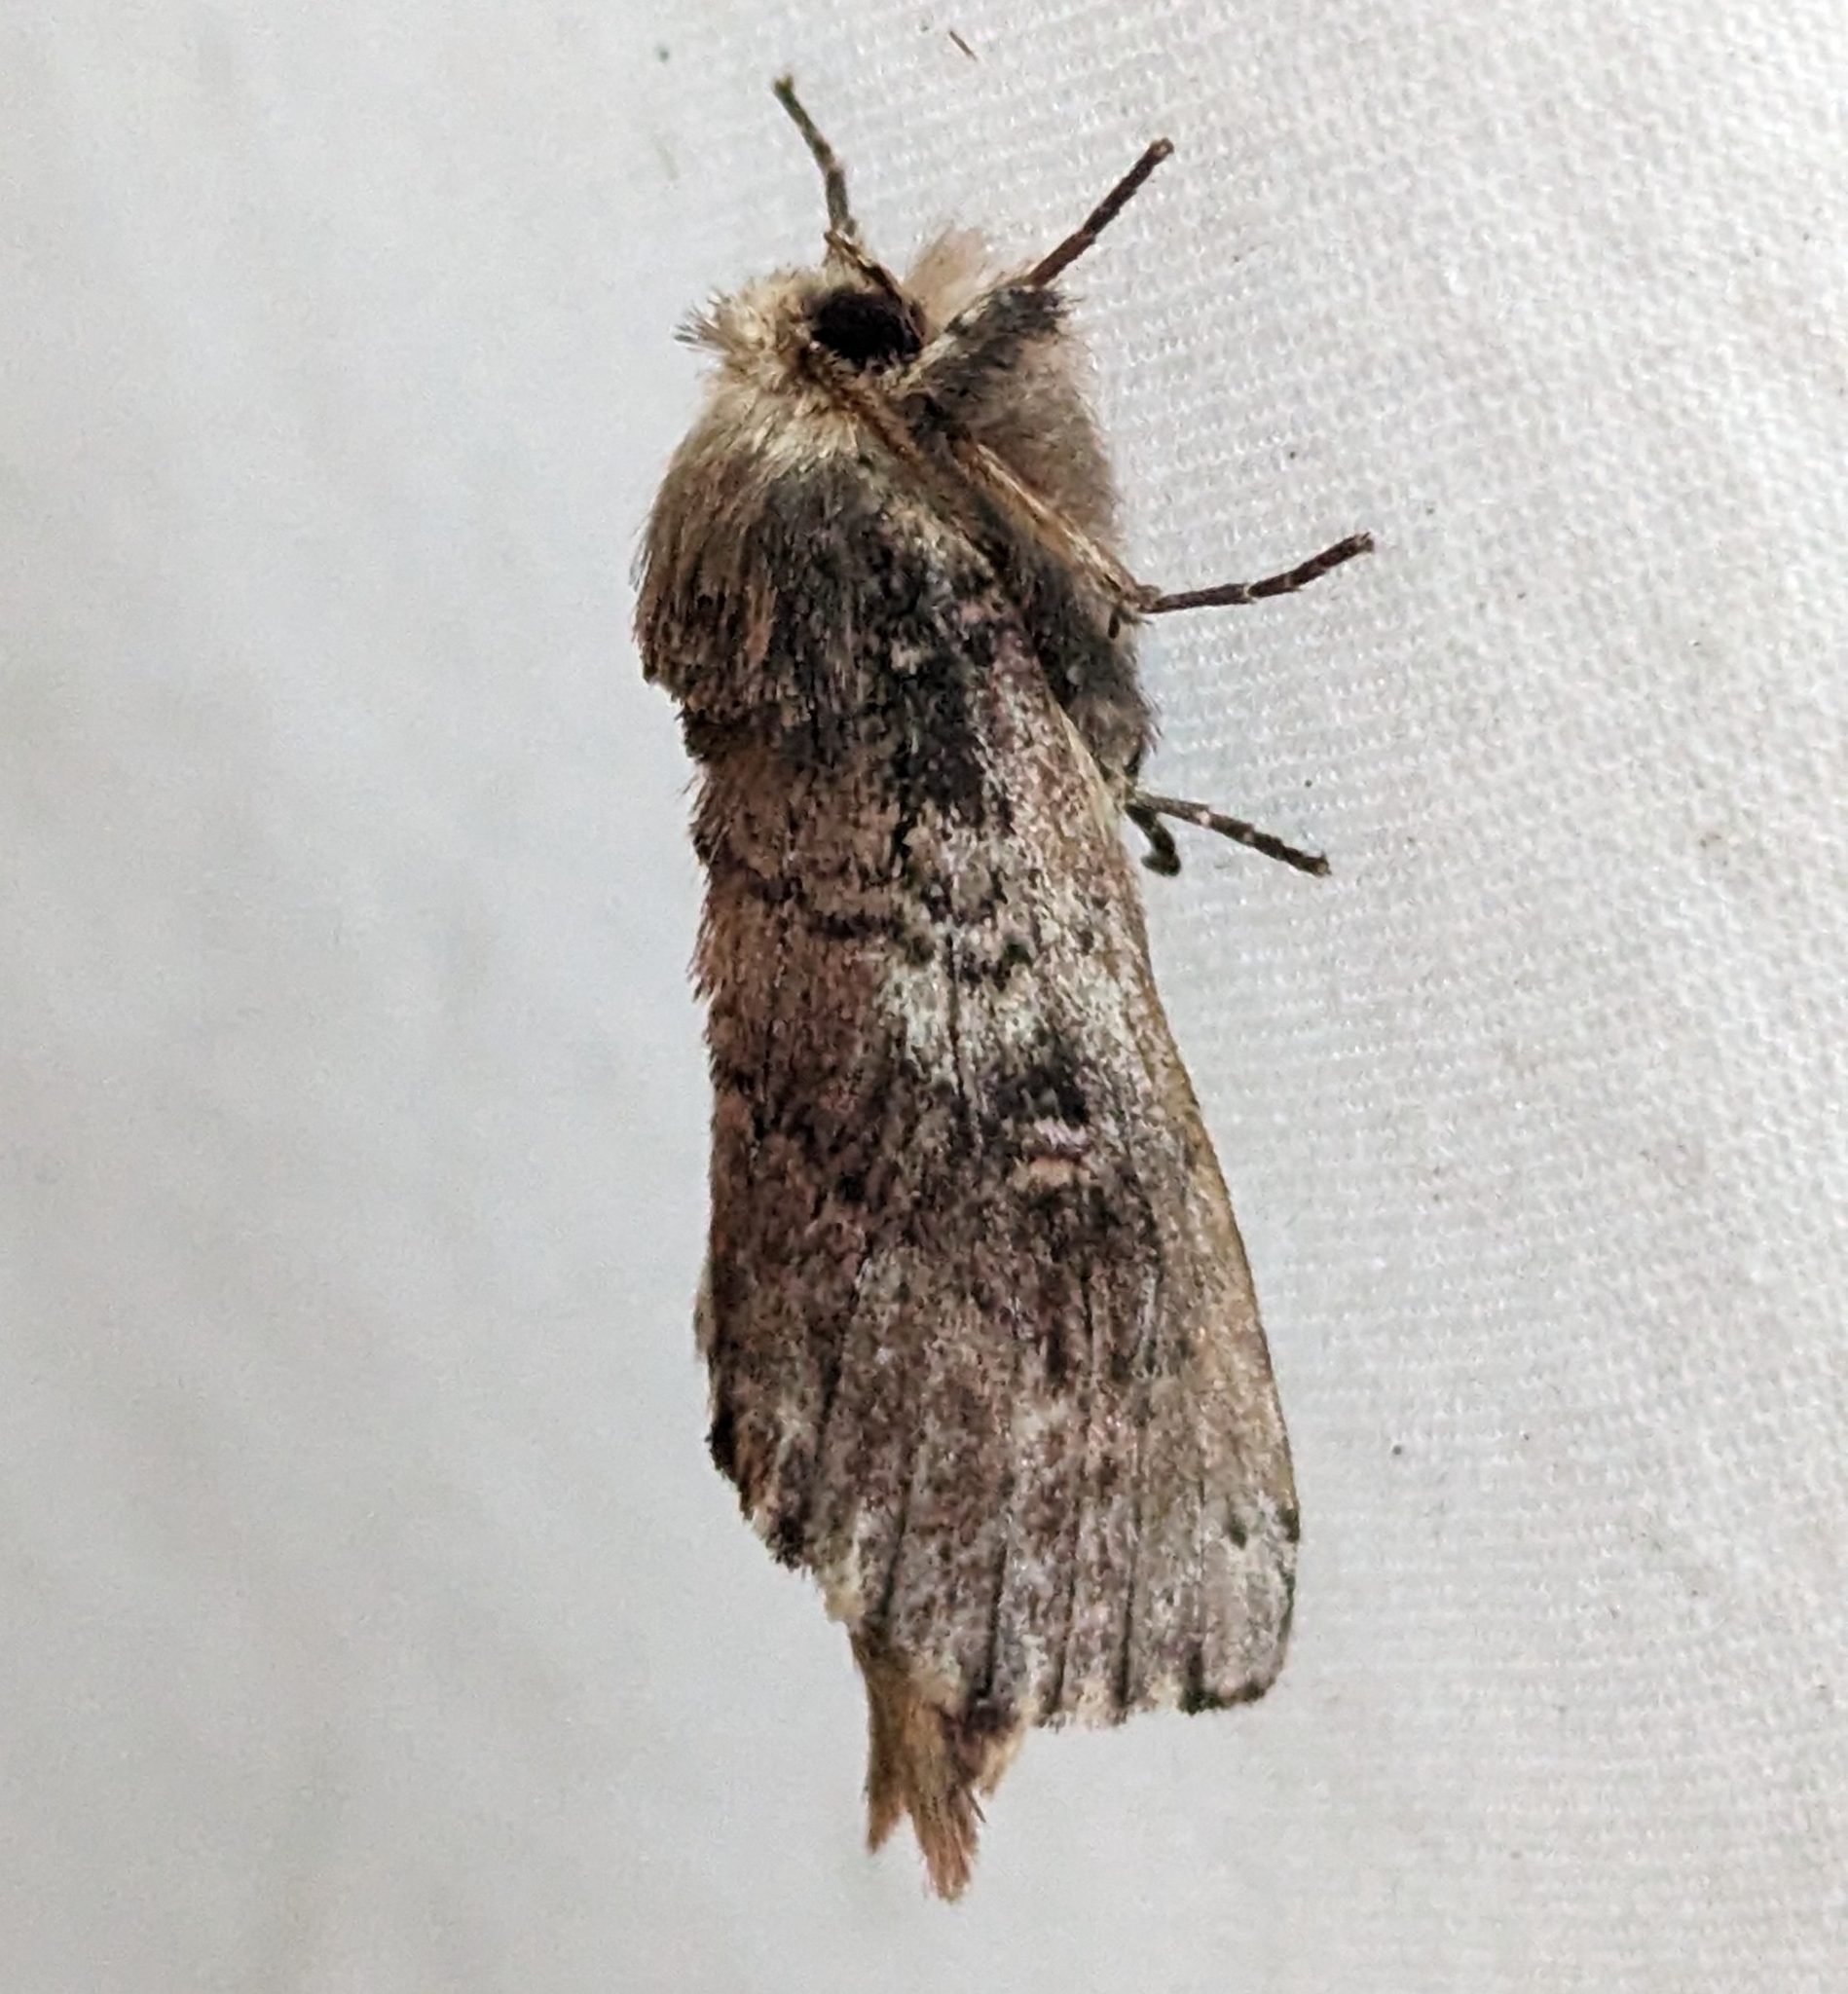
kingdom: Animalia
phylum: Arthropoda
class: Insecta
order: Lepidoptera
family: Notodontidae
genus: Schizura
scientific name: Schizura ipomaeae
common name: Morning-glory prominent
